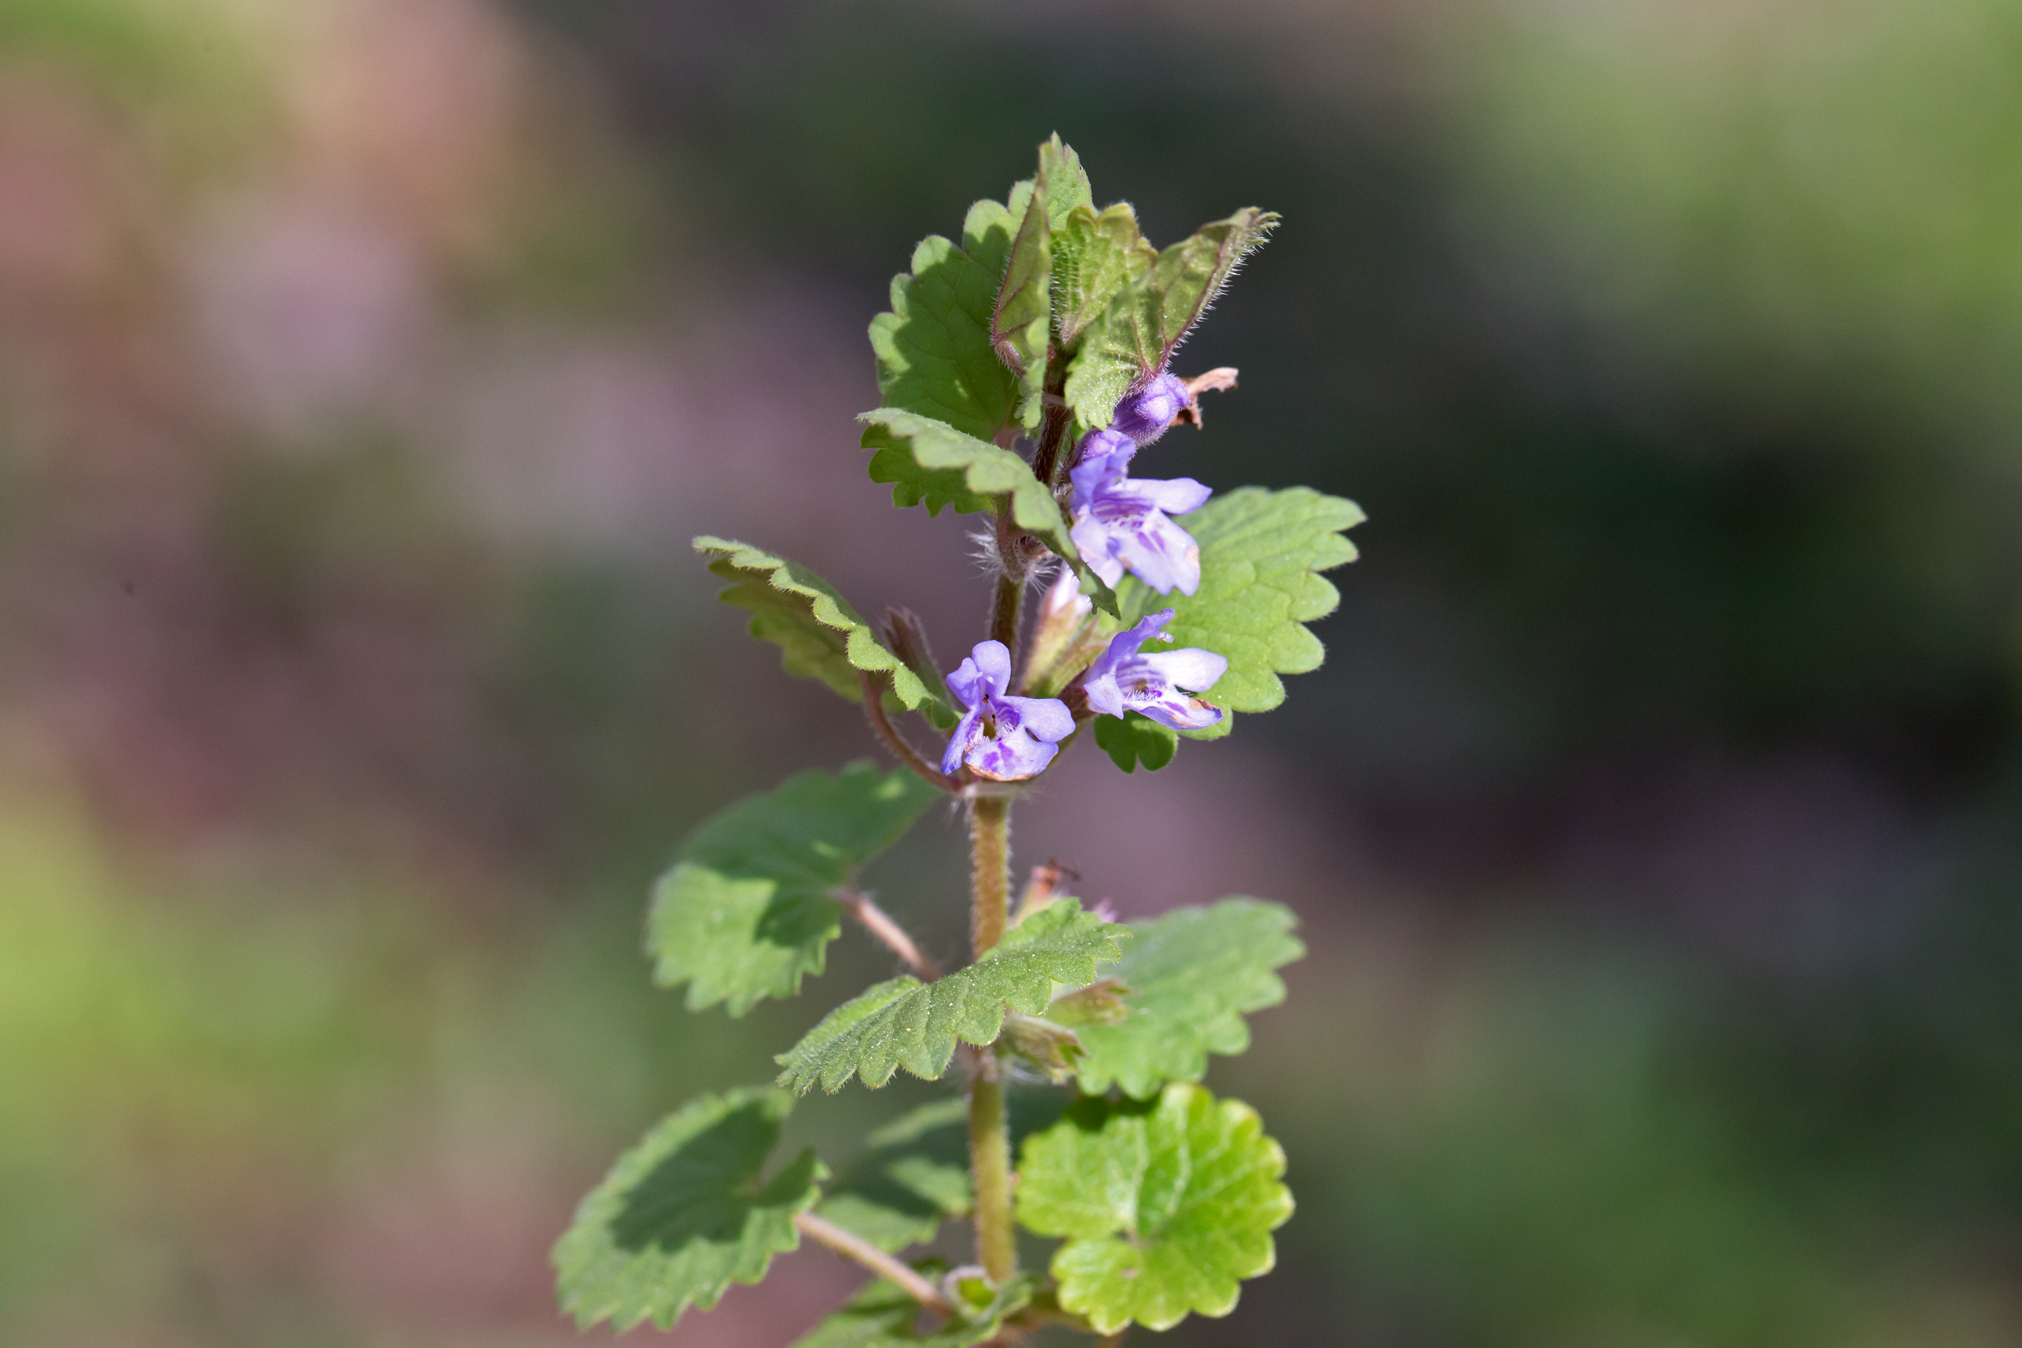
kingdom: Plantae
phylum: Tracheophyta
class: Magnoliopsida
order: Lamiales
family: Lamiaceae
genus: Glechoma
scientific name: Glechoma hederacea
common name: Ground ivy
